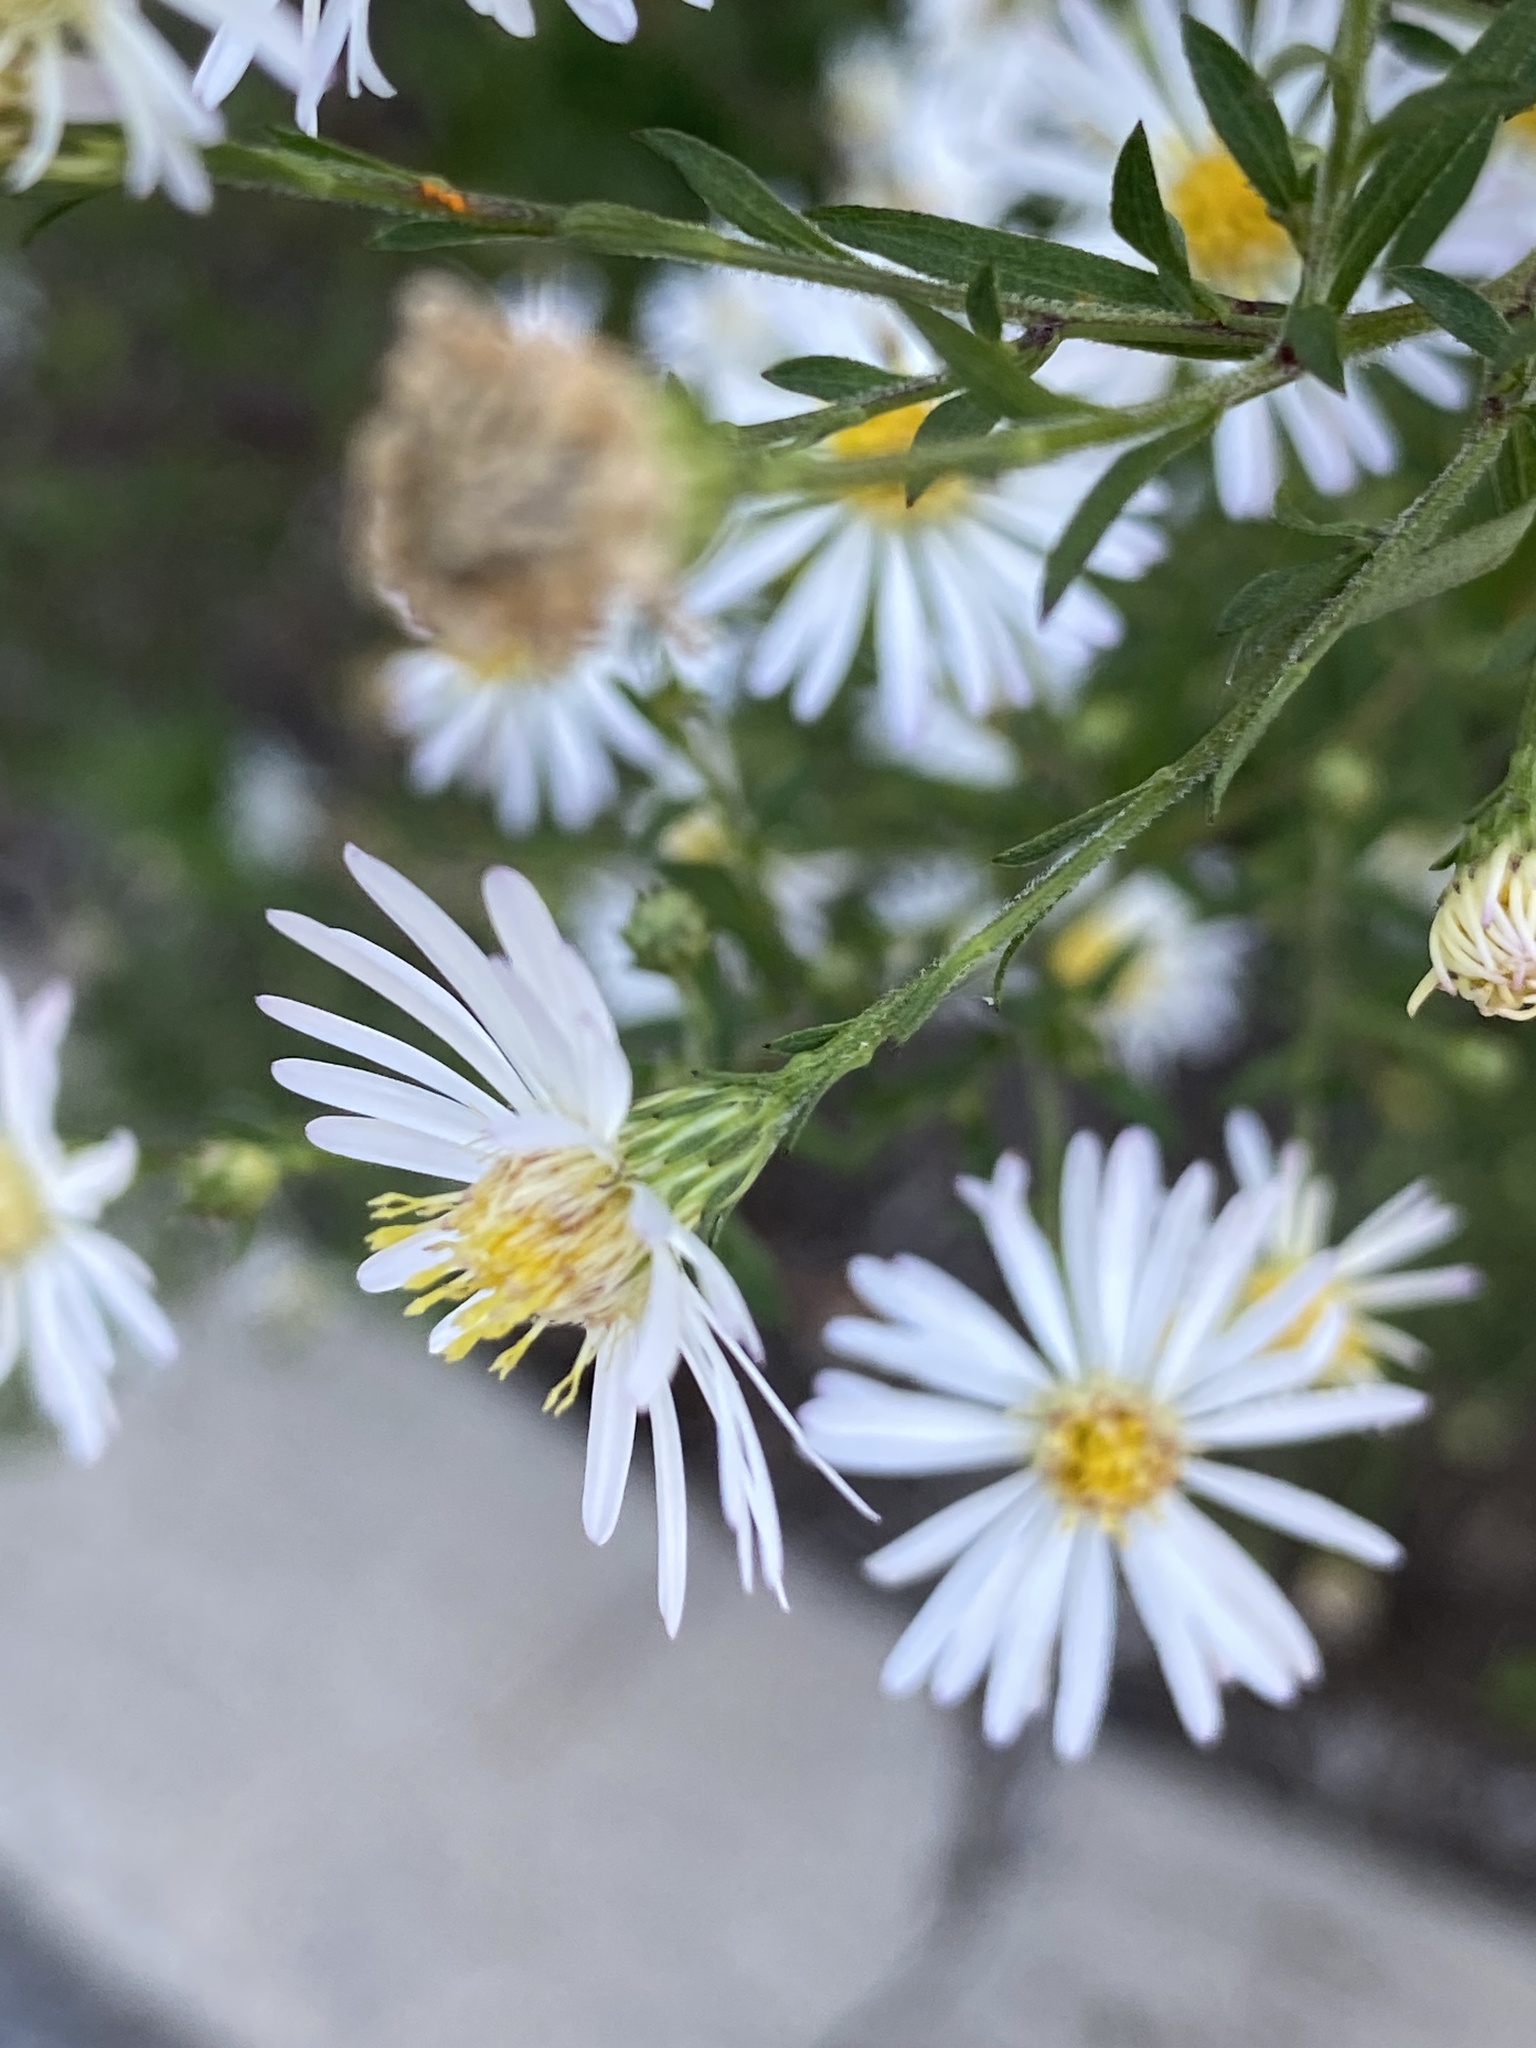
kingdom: Plantae
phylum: Tracheophyta
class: Magnoliopsida
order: Asterales
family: Asteraceae
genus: Symphyotrichum
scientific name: Symphyotrichum lanceolatum
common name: Panicled aster
